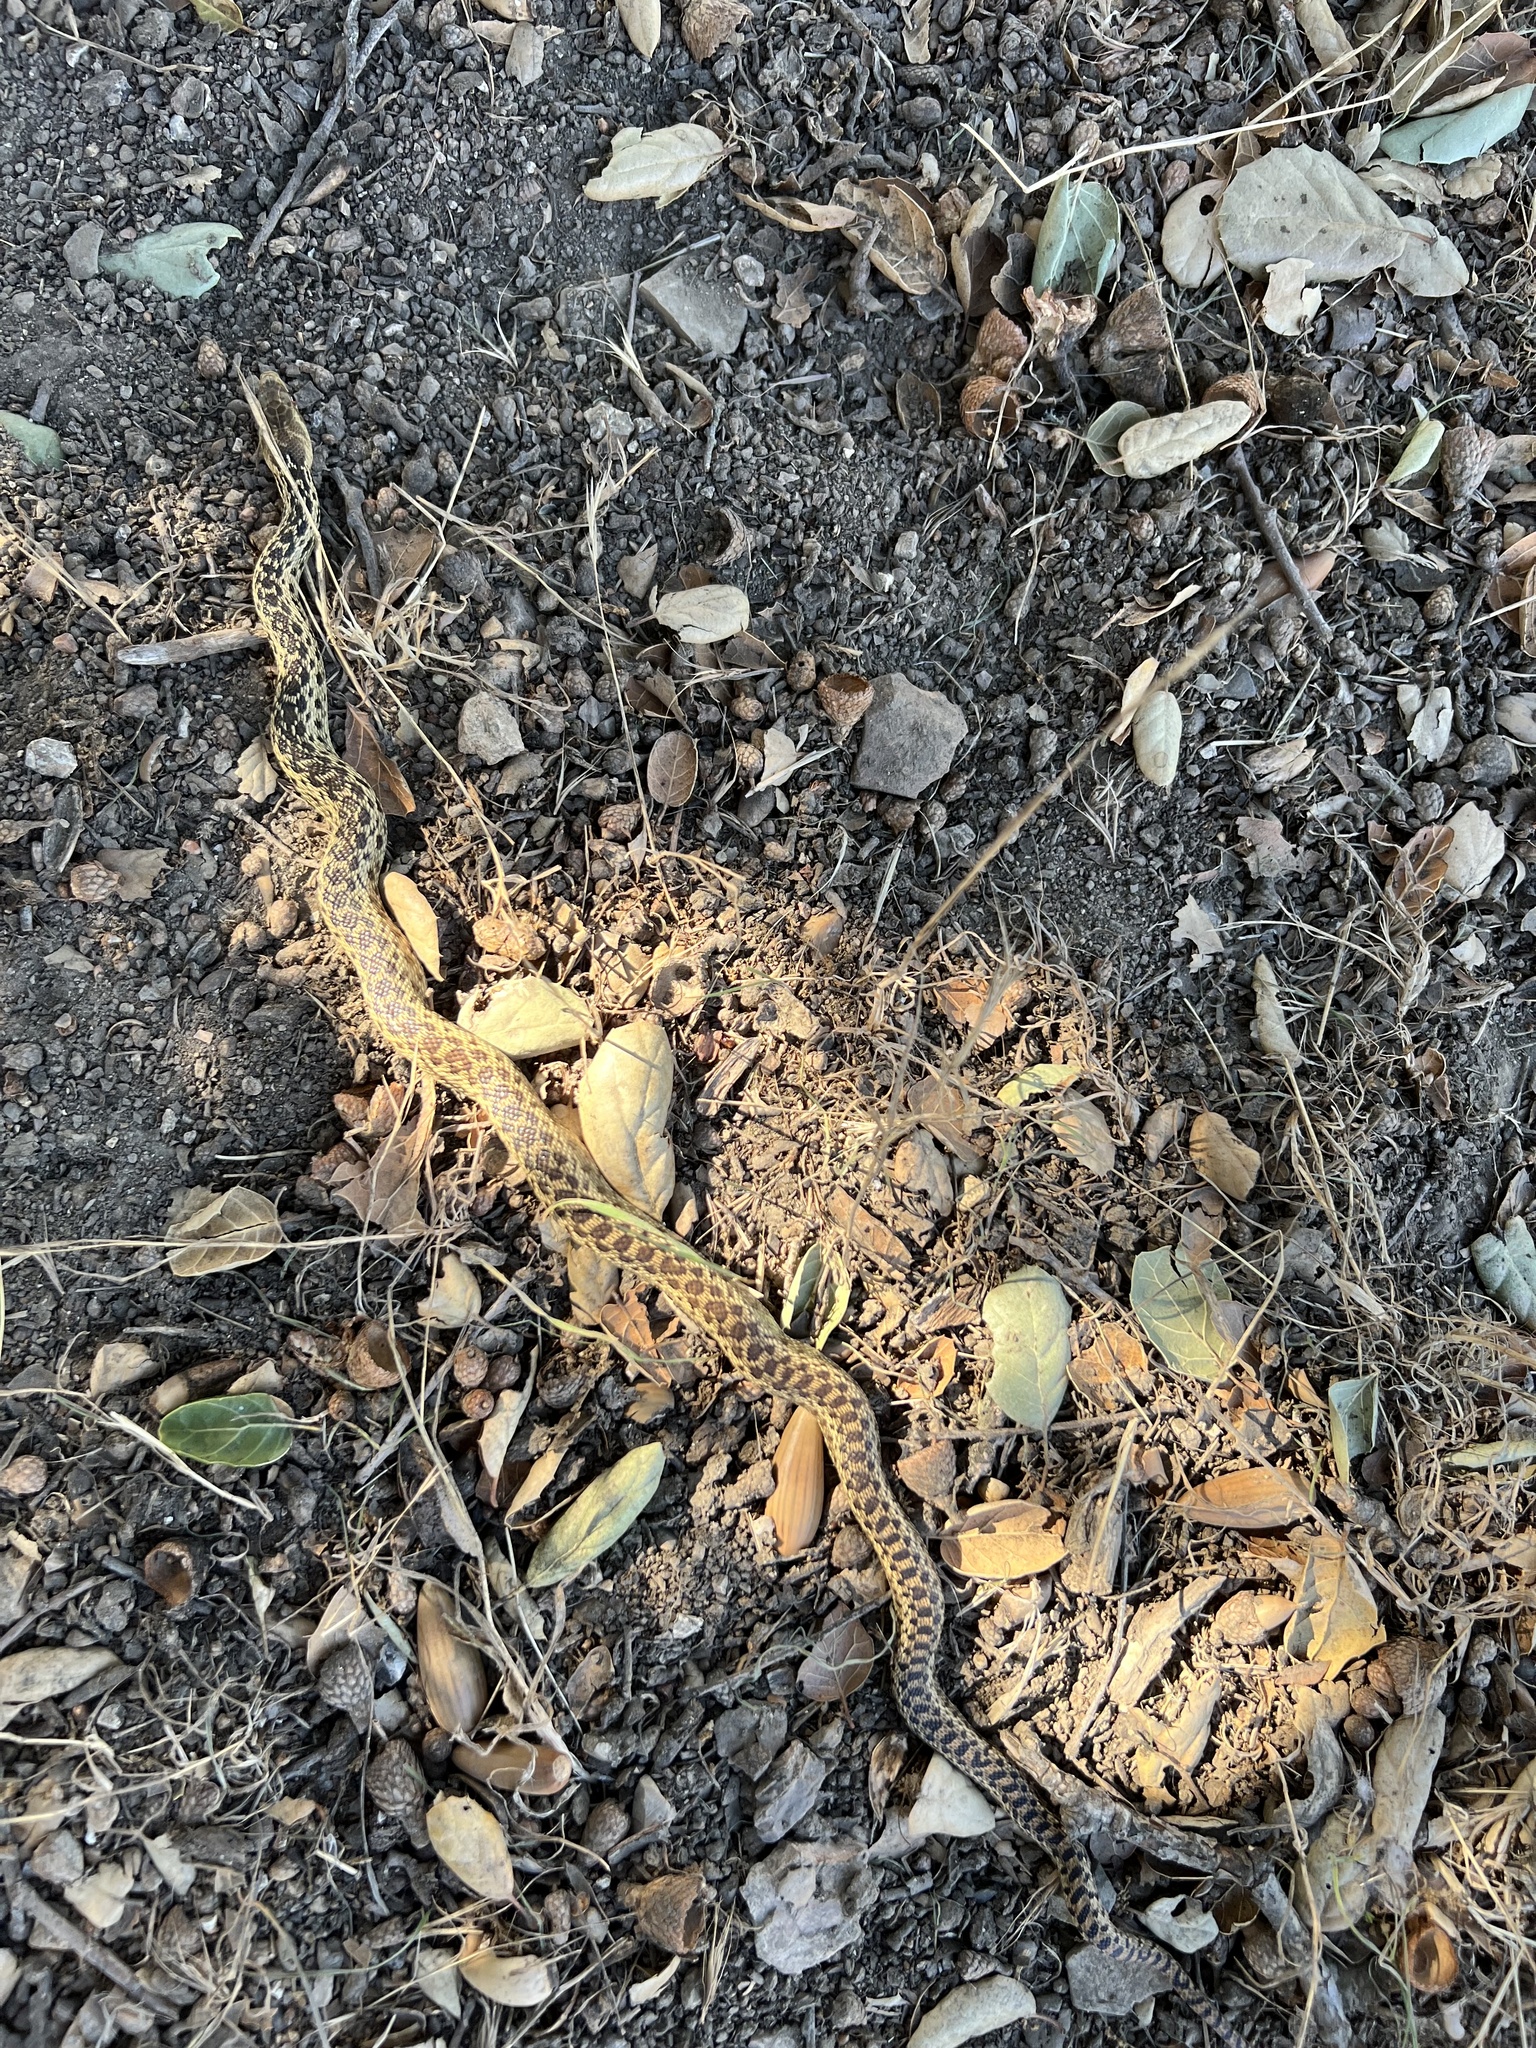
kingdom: Animalia
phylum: Chordata
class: Squamata
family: Colubridae
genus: Pituophis
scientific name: Pituophis catenifer
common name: Gopher snake
